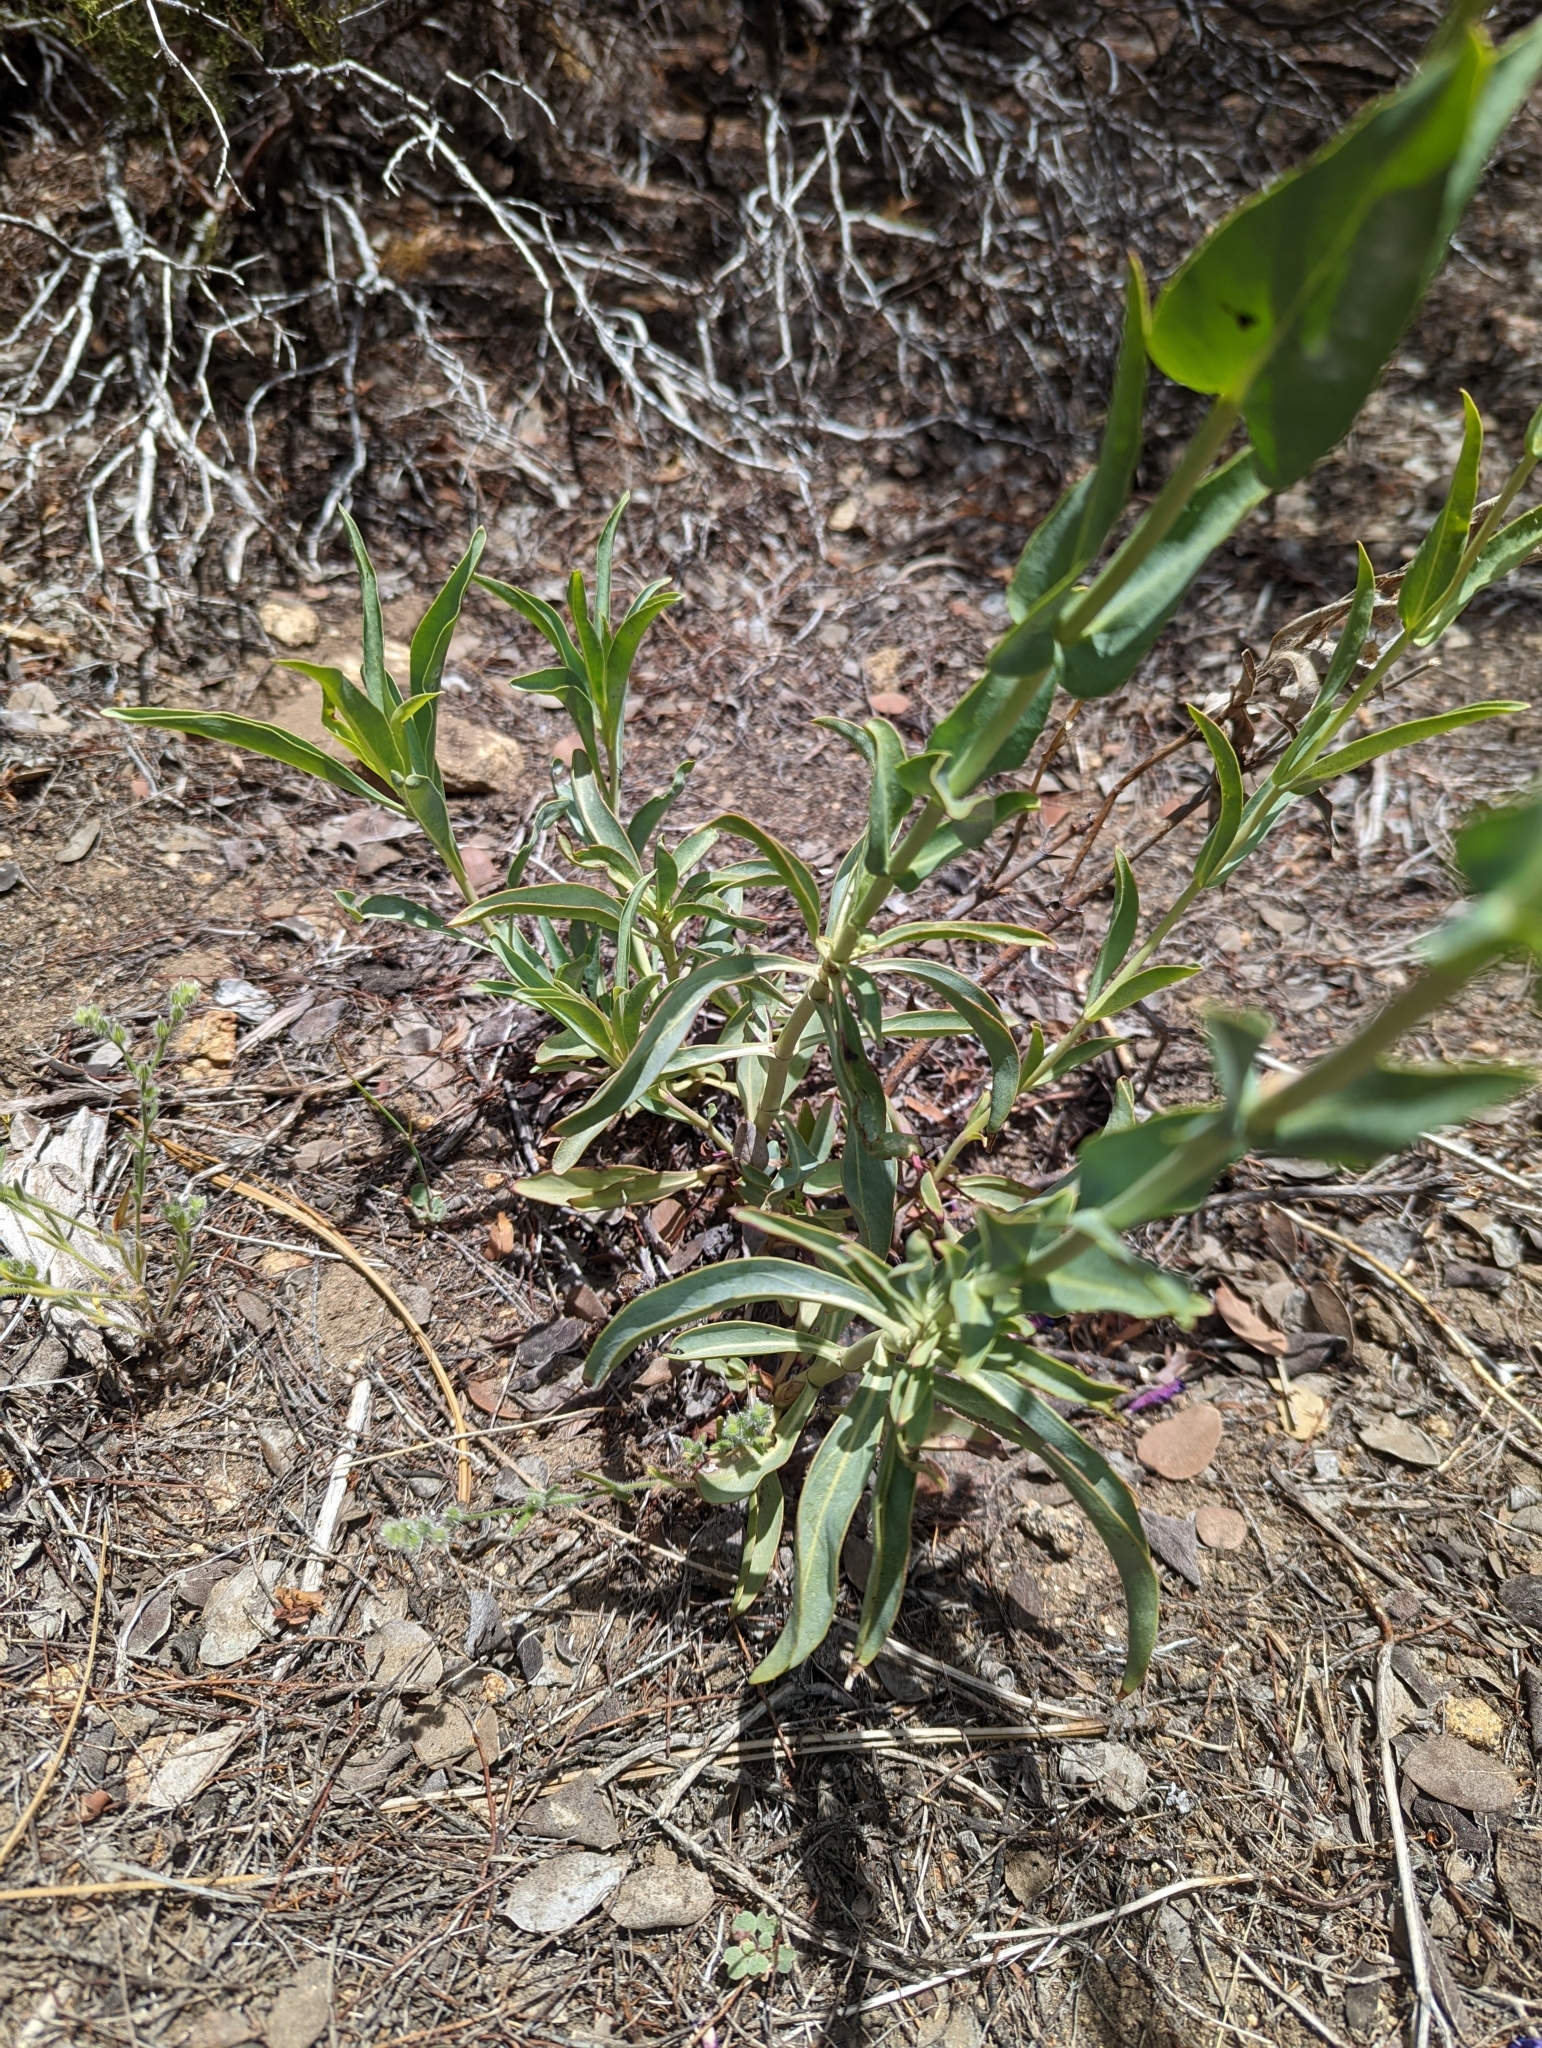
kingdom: Plantae
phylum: Tracheophyta
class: Magnoliopsida
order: Lamiales
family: Plantaginaceae
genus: Penstemon
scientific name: Penstemon parishii
